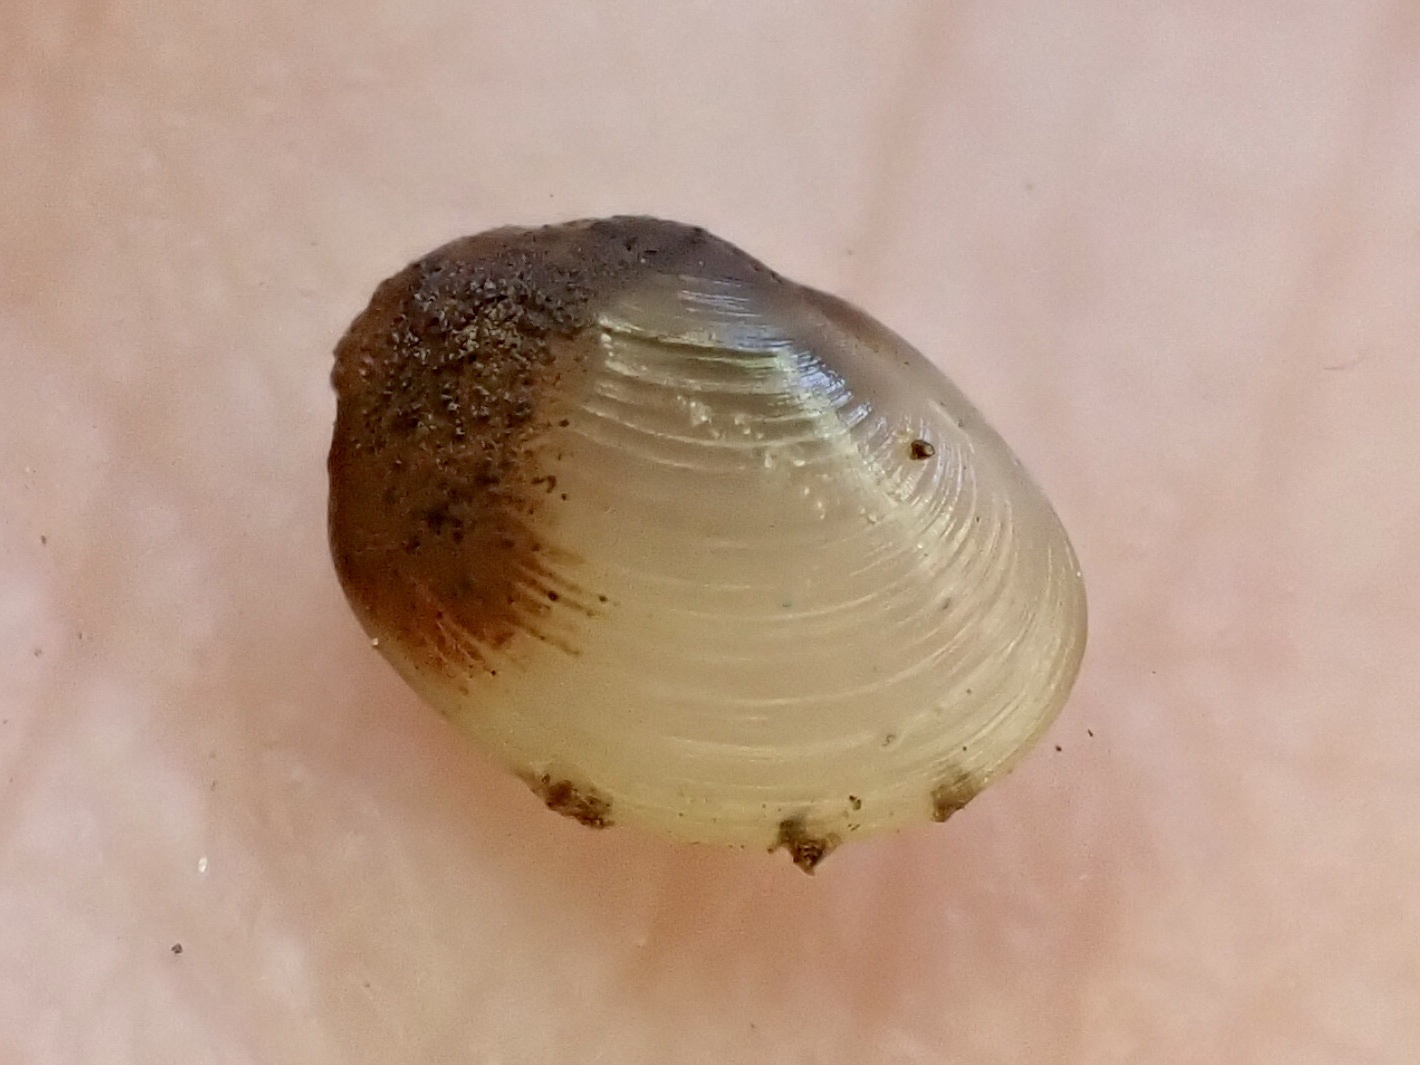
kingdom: Animalia
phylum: Mollusca
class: Bivalvia
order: Sphaeriida
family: Sphaeriidae
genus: Pisidium
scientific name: Pisidium amnicum
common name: Greater european peaclam
